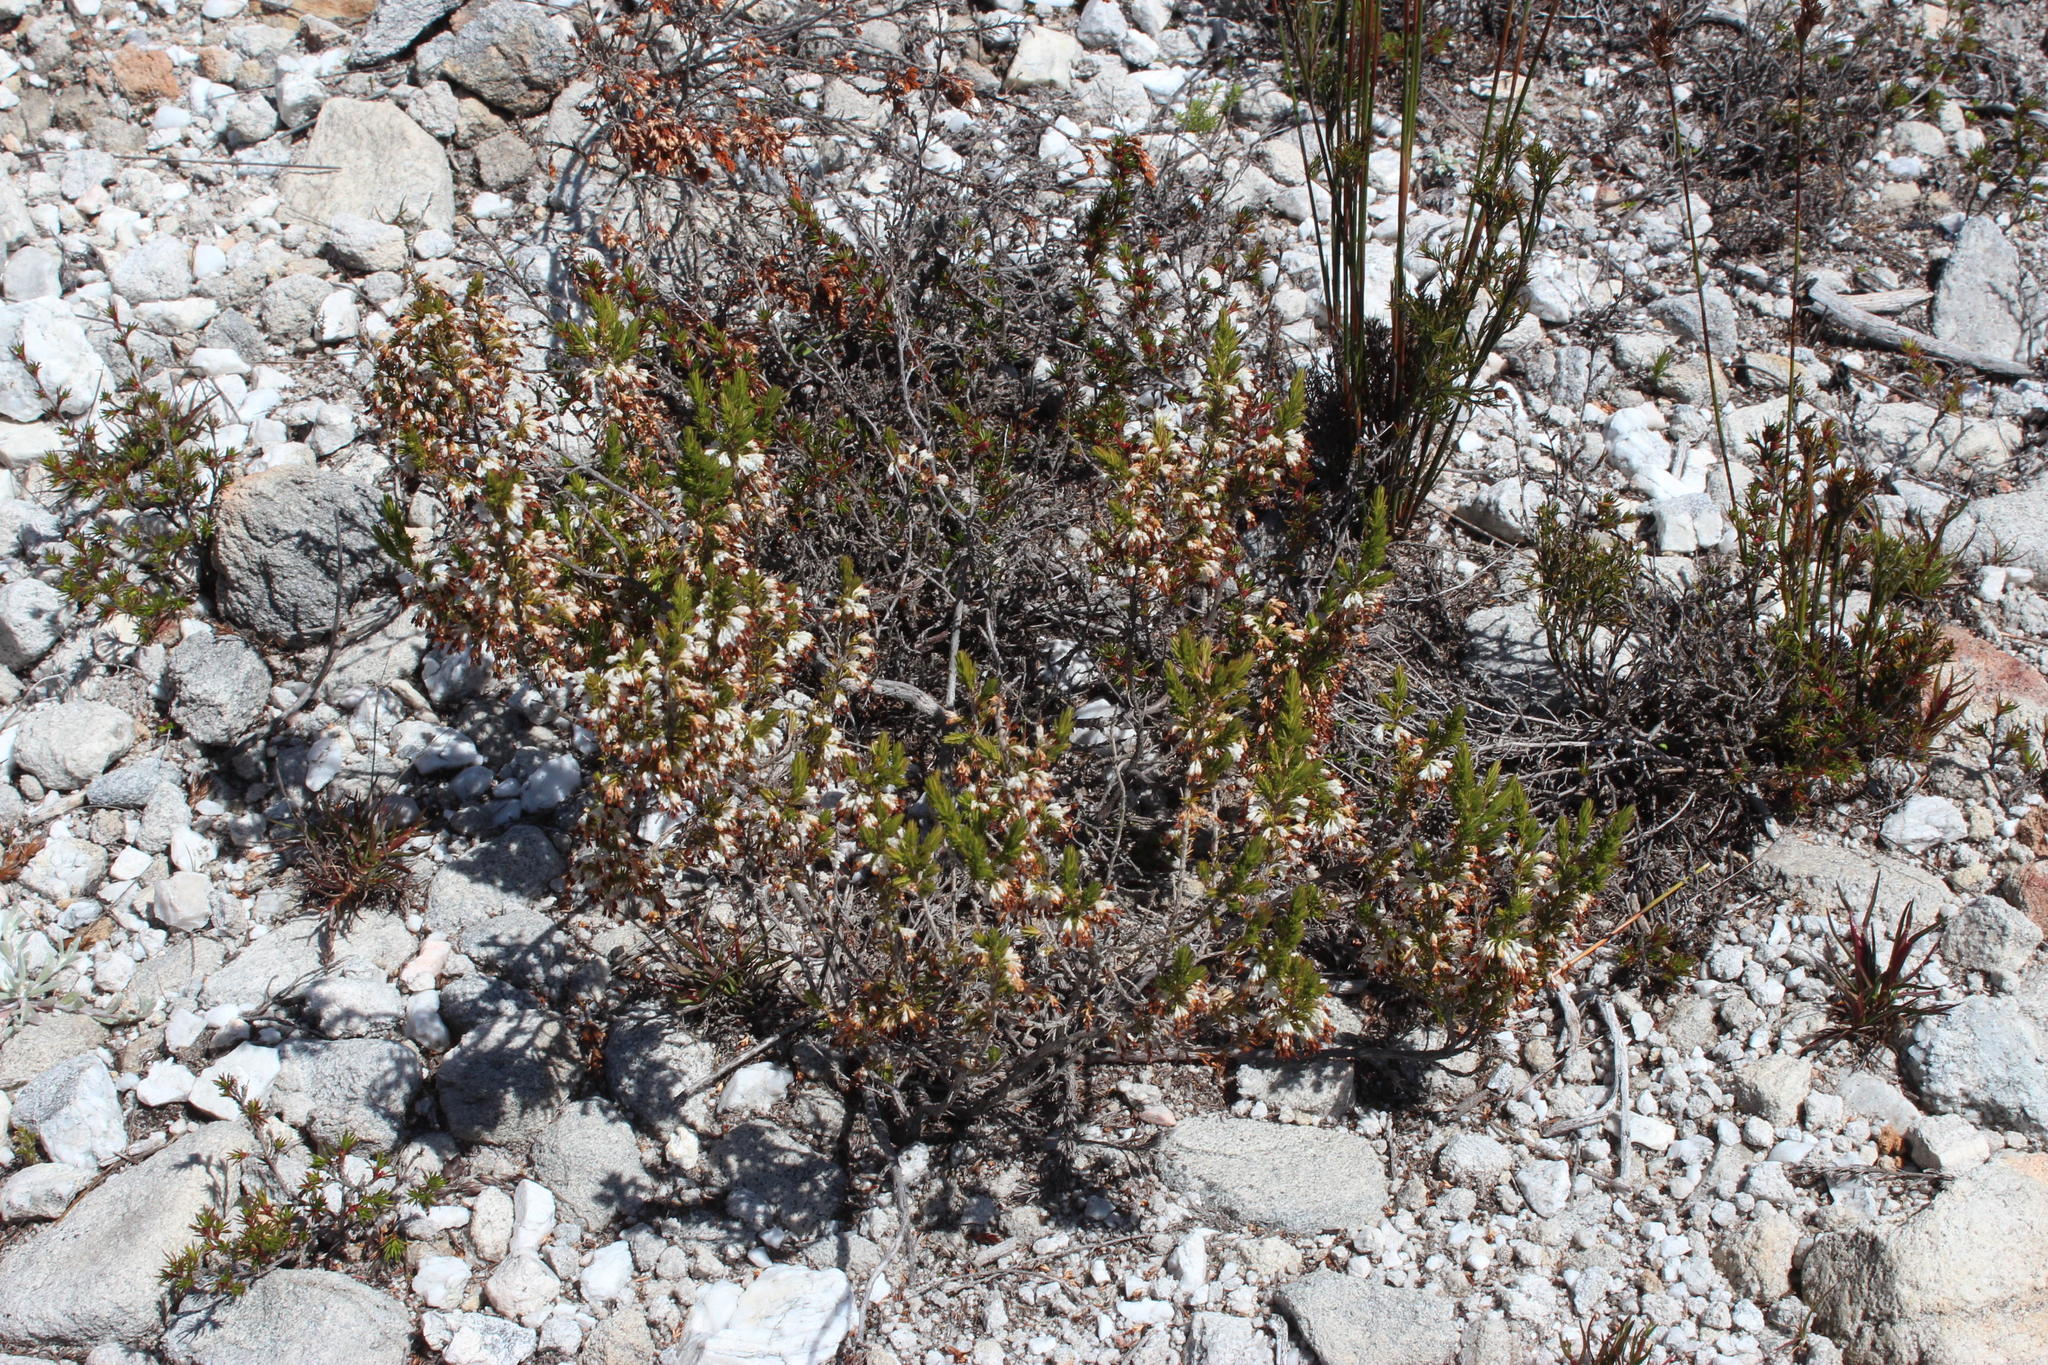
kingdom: Plantae
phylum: Tracheophyta
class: Magnoliopsida
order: Ericales
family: Ericaceae
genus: Erica
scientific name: Erica imbricata
